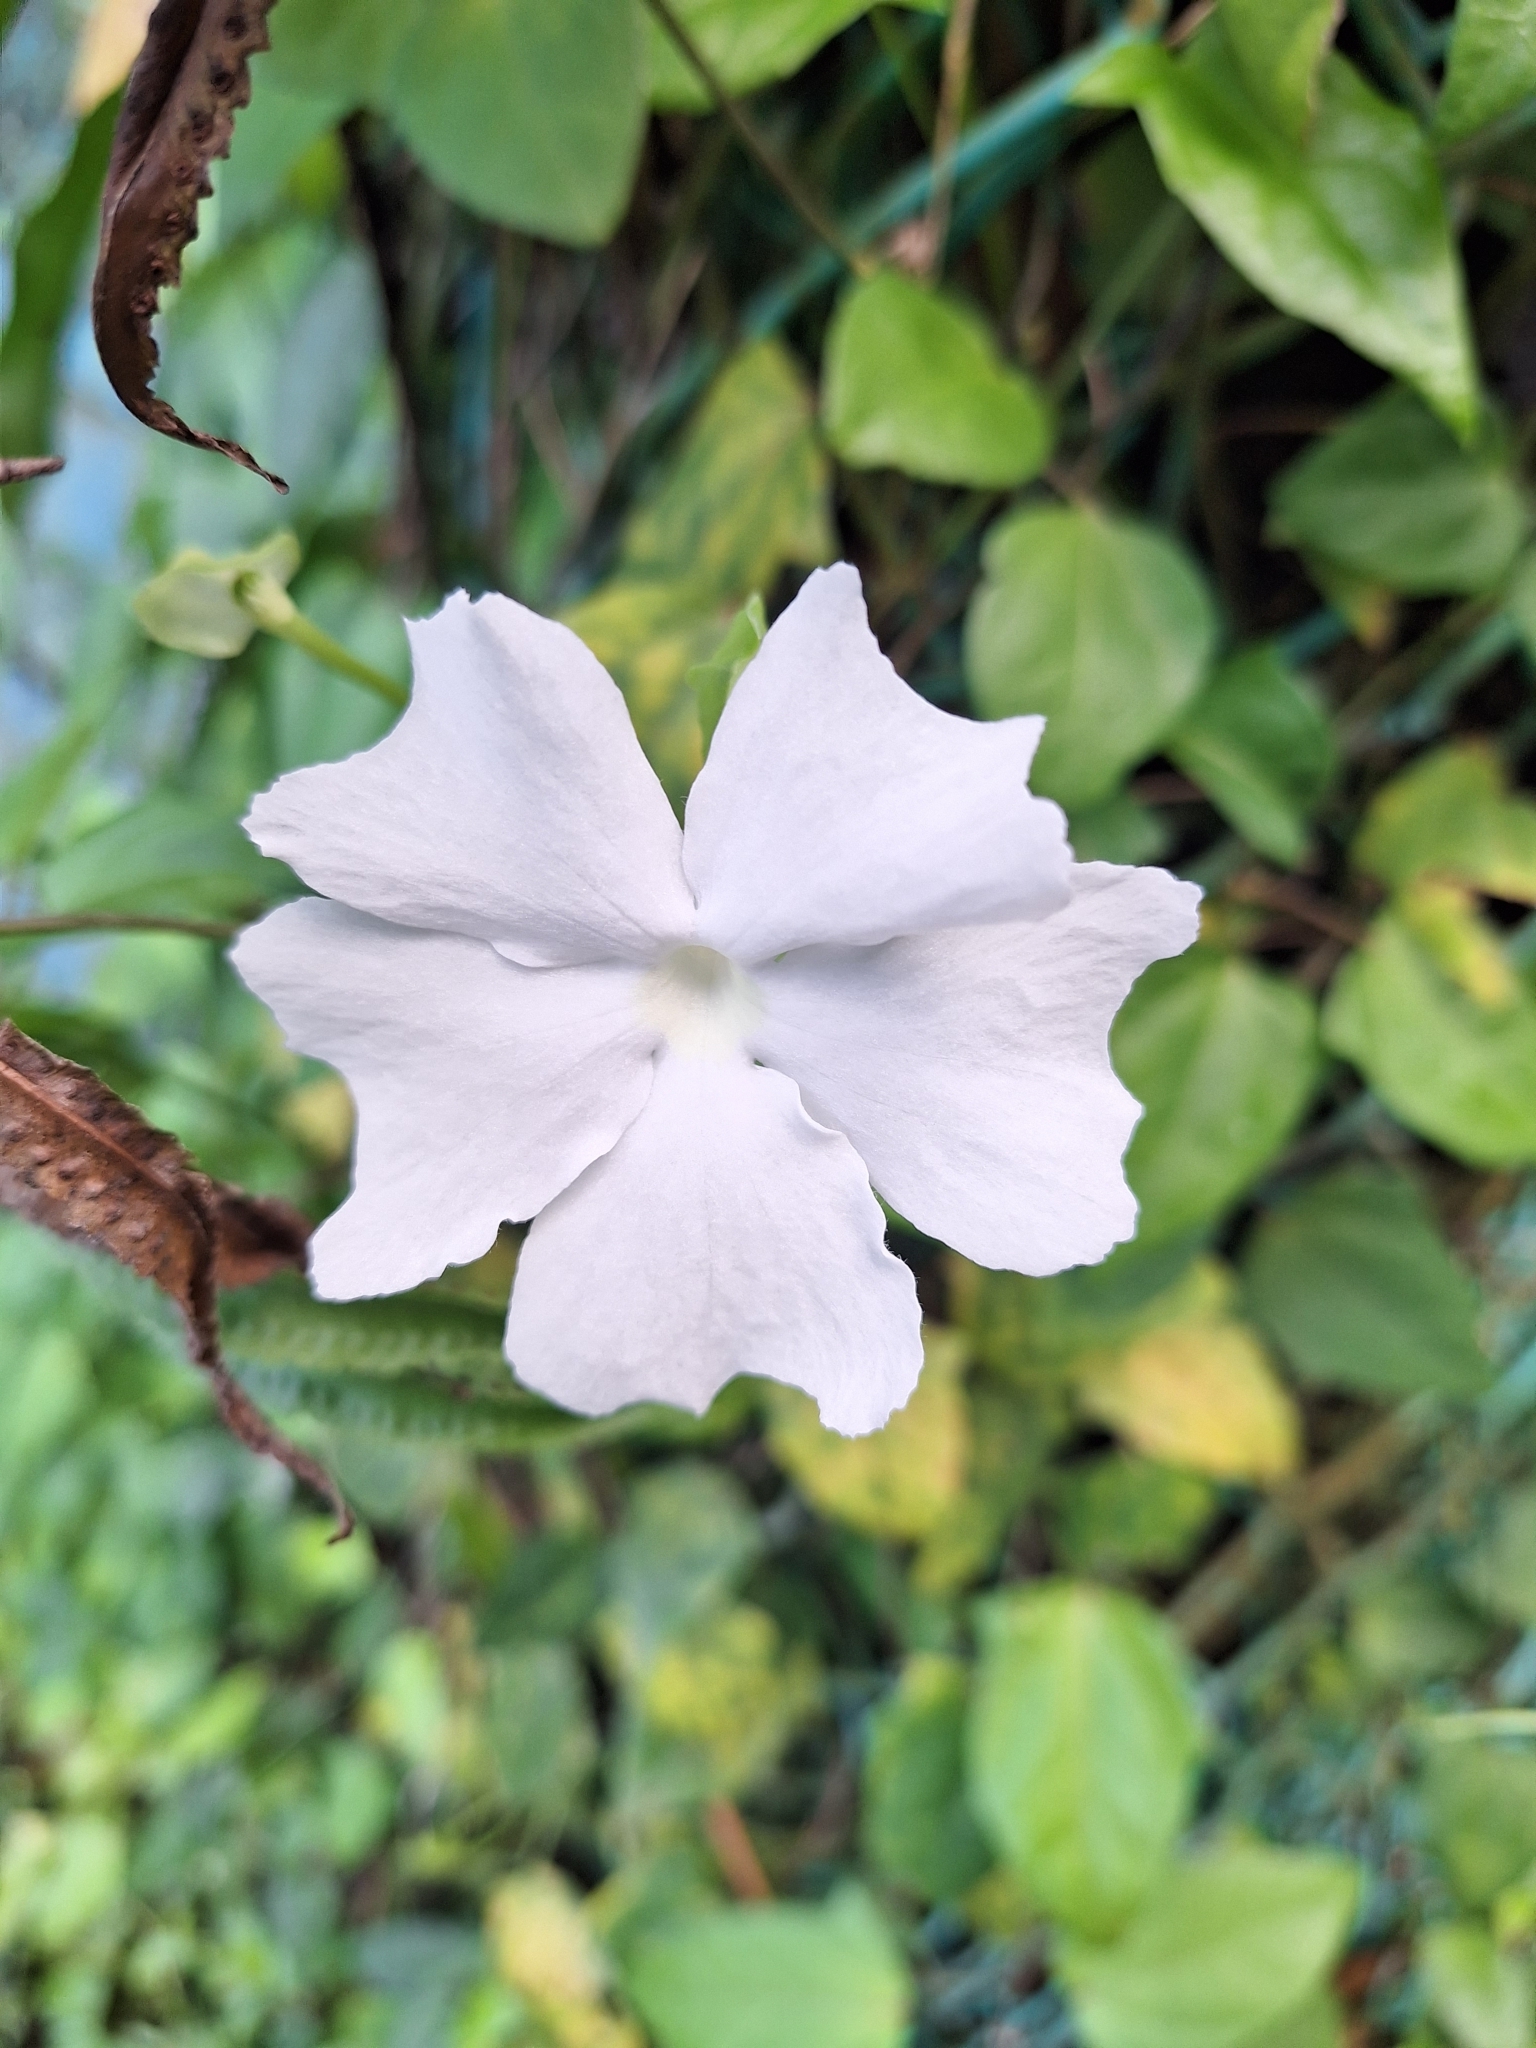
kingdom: Plantae
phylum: Tracheophyta
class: Magnoliopsida
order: Lamiales
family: Acanthaceae
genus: Thunbergia
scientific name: Thunbergia fragrans
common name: Whitelady
